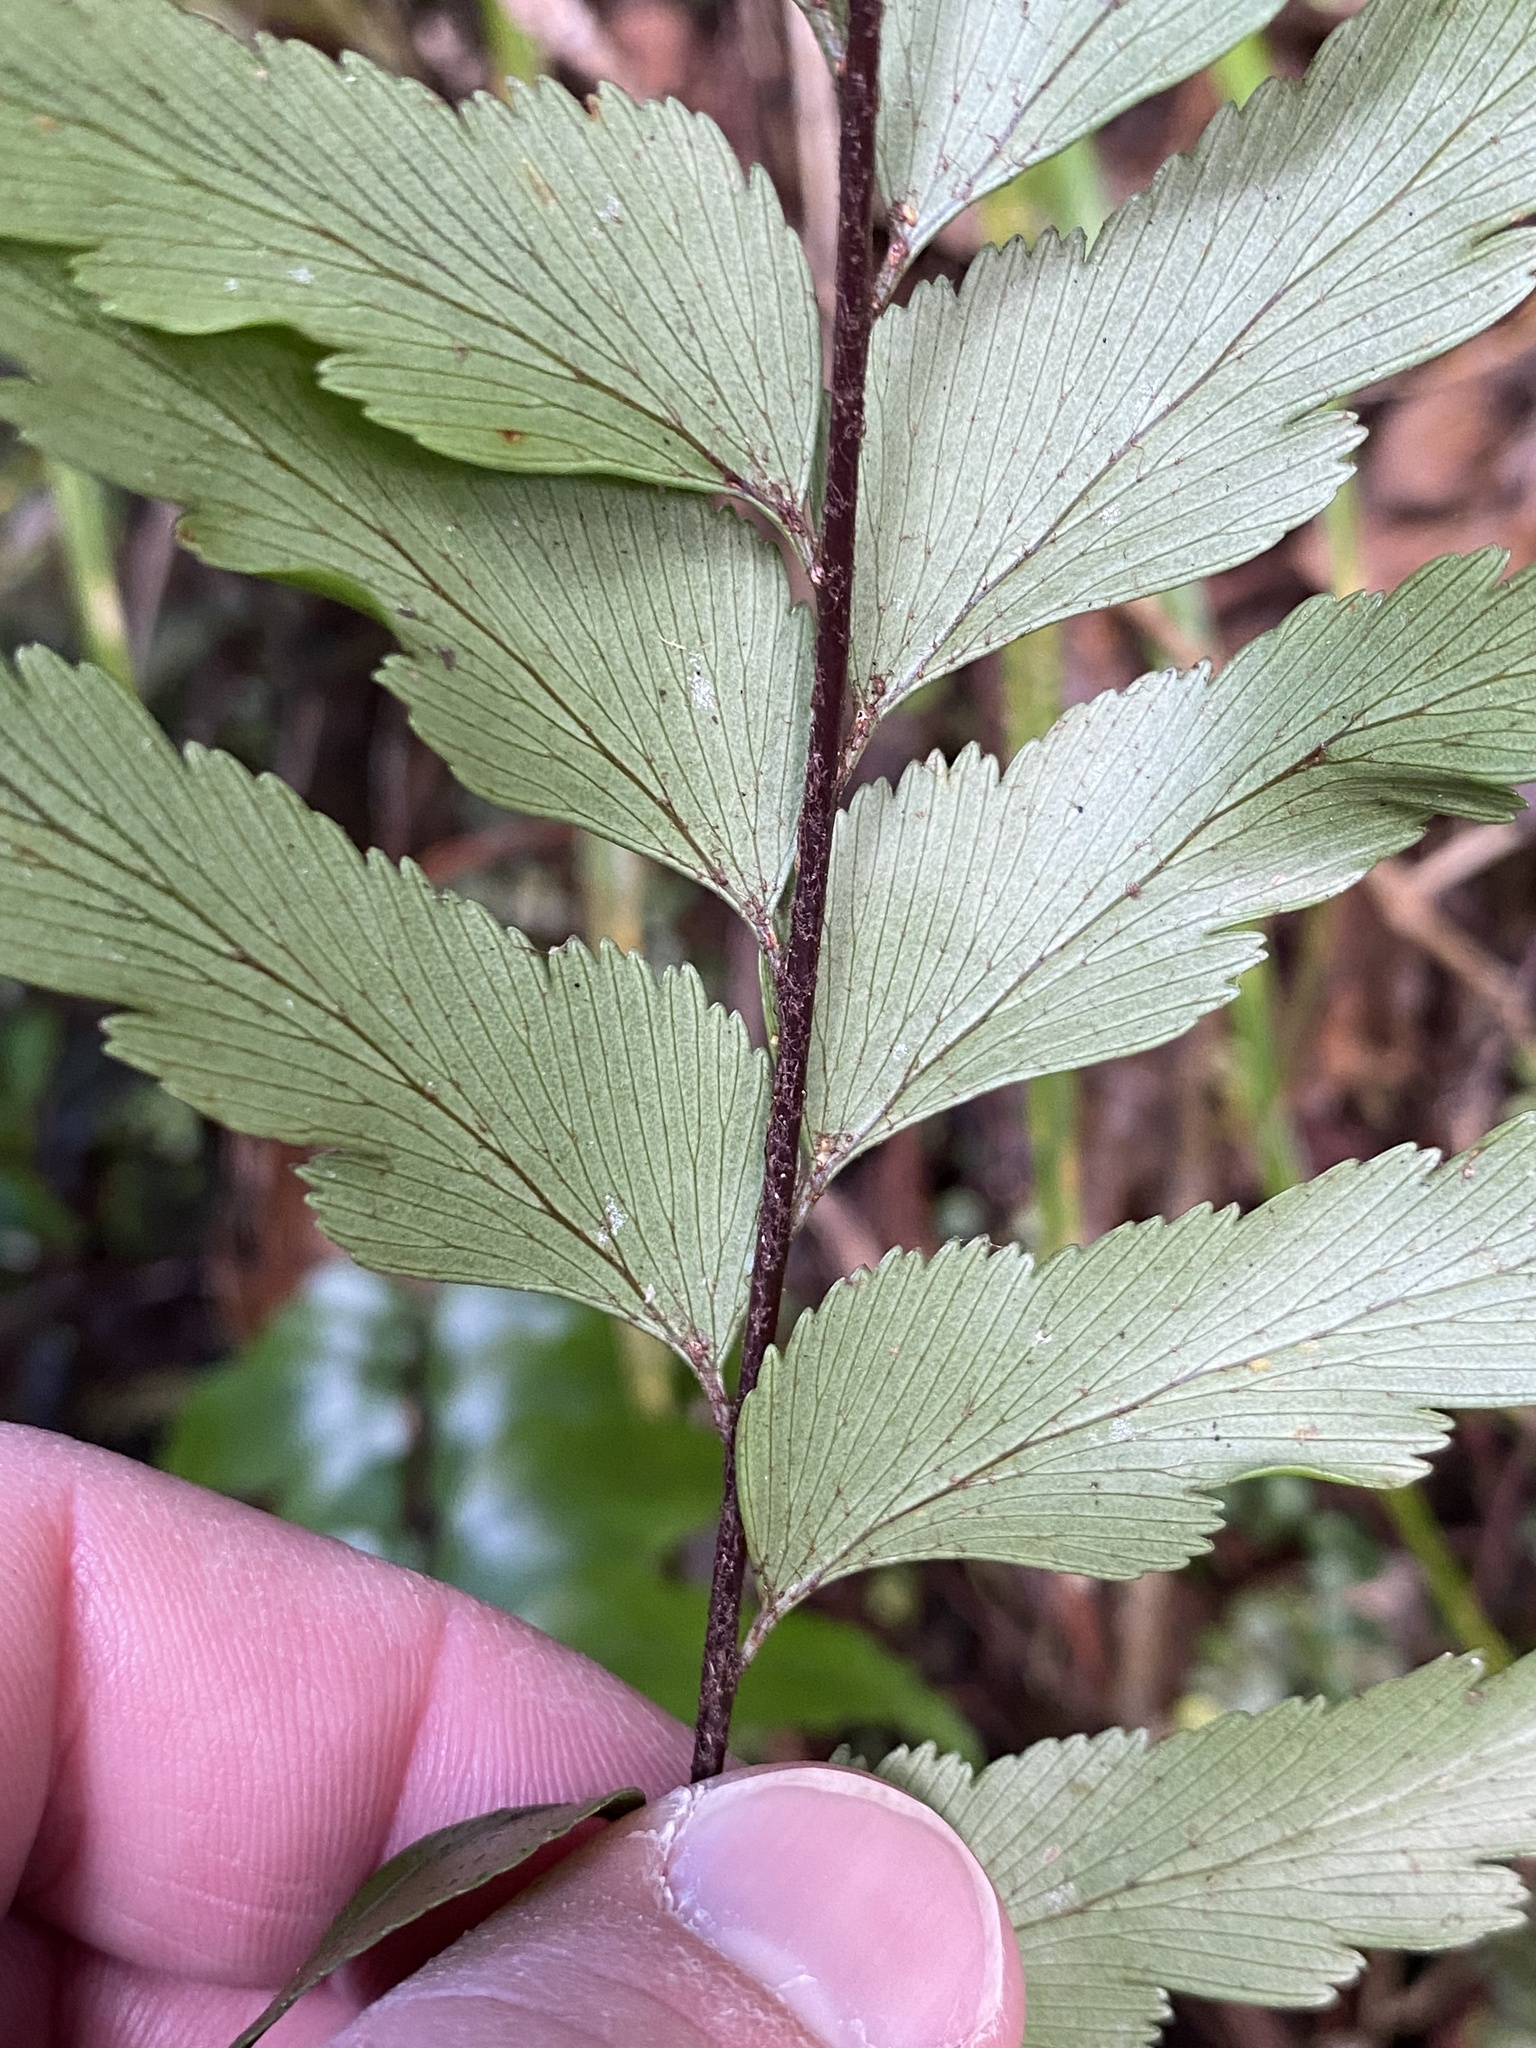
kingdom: Plantae
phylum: Tracheophyta
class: Polypodiopsida
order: Polypodiales
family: Aspleniaceae
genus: Asplenium
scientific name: Asplenium polyodon
